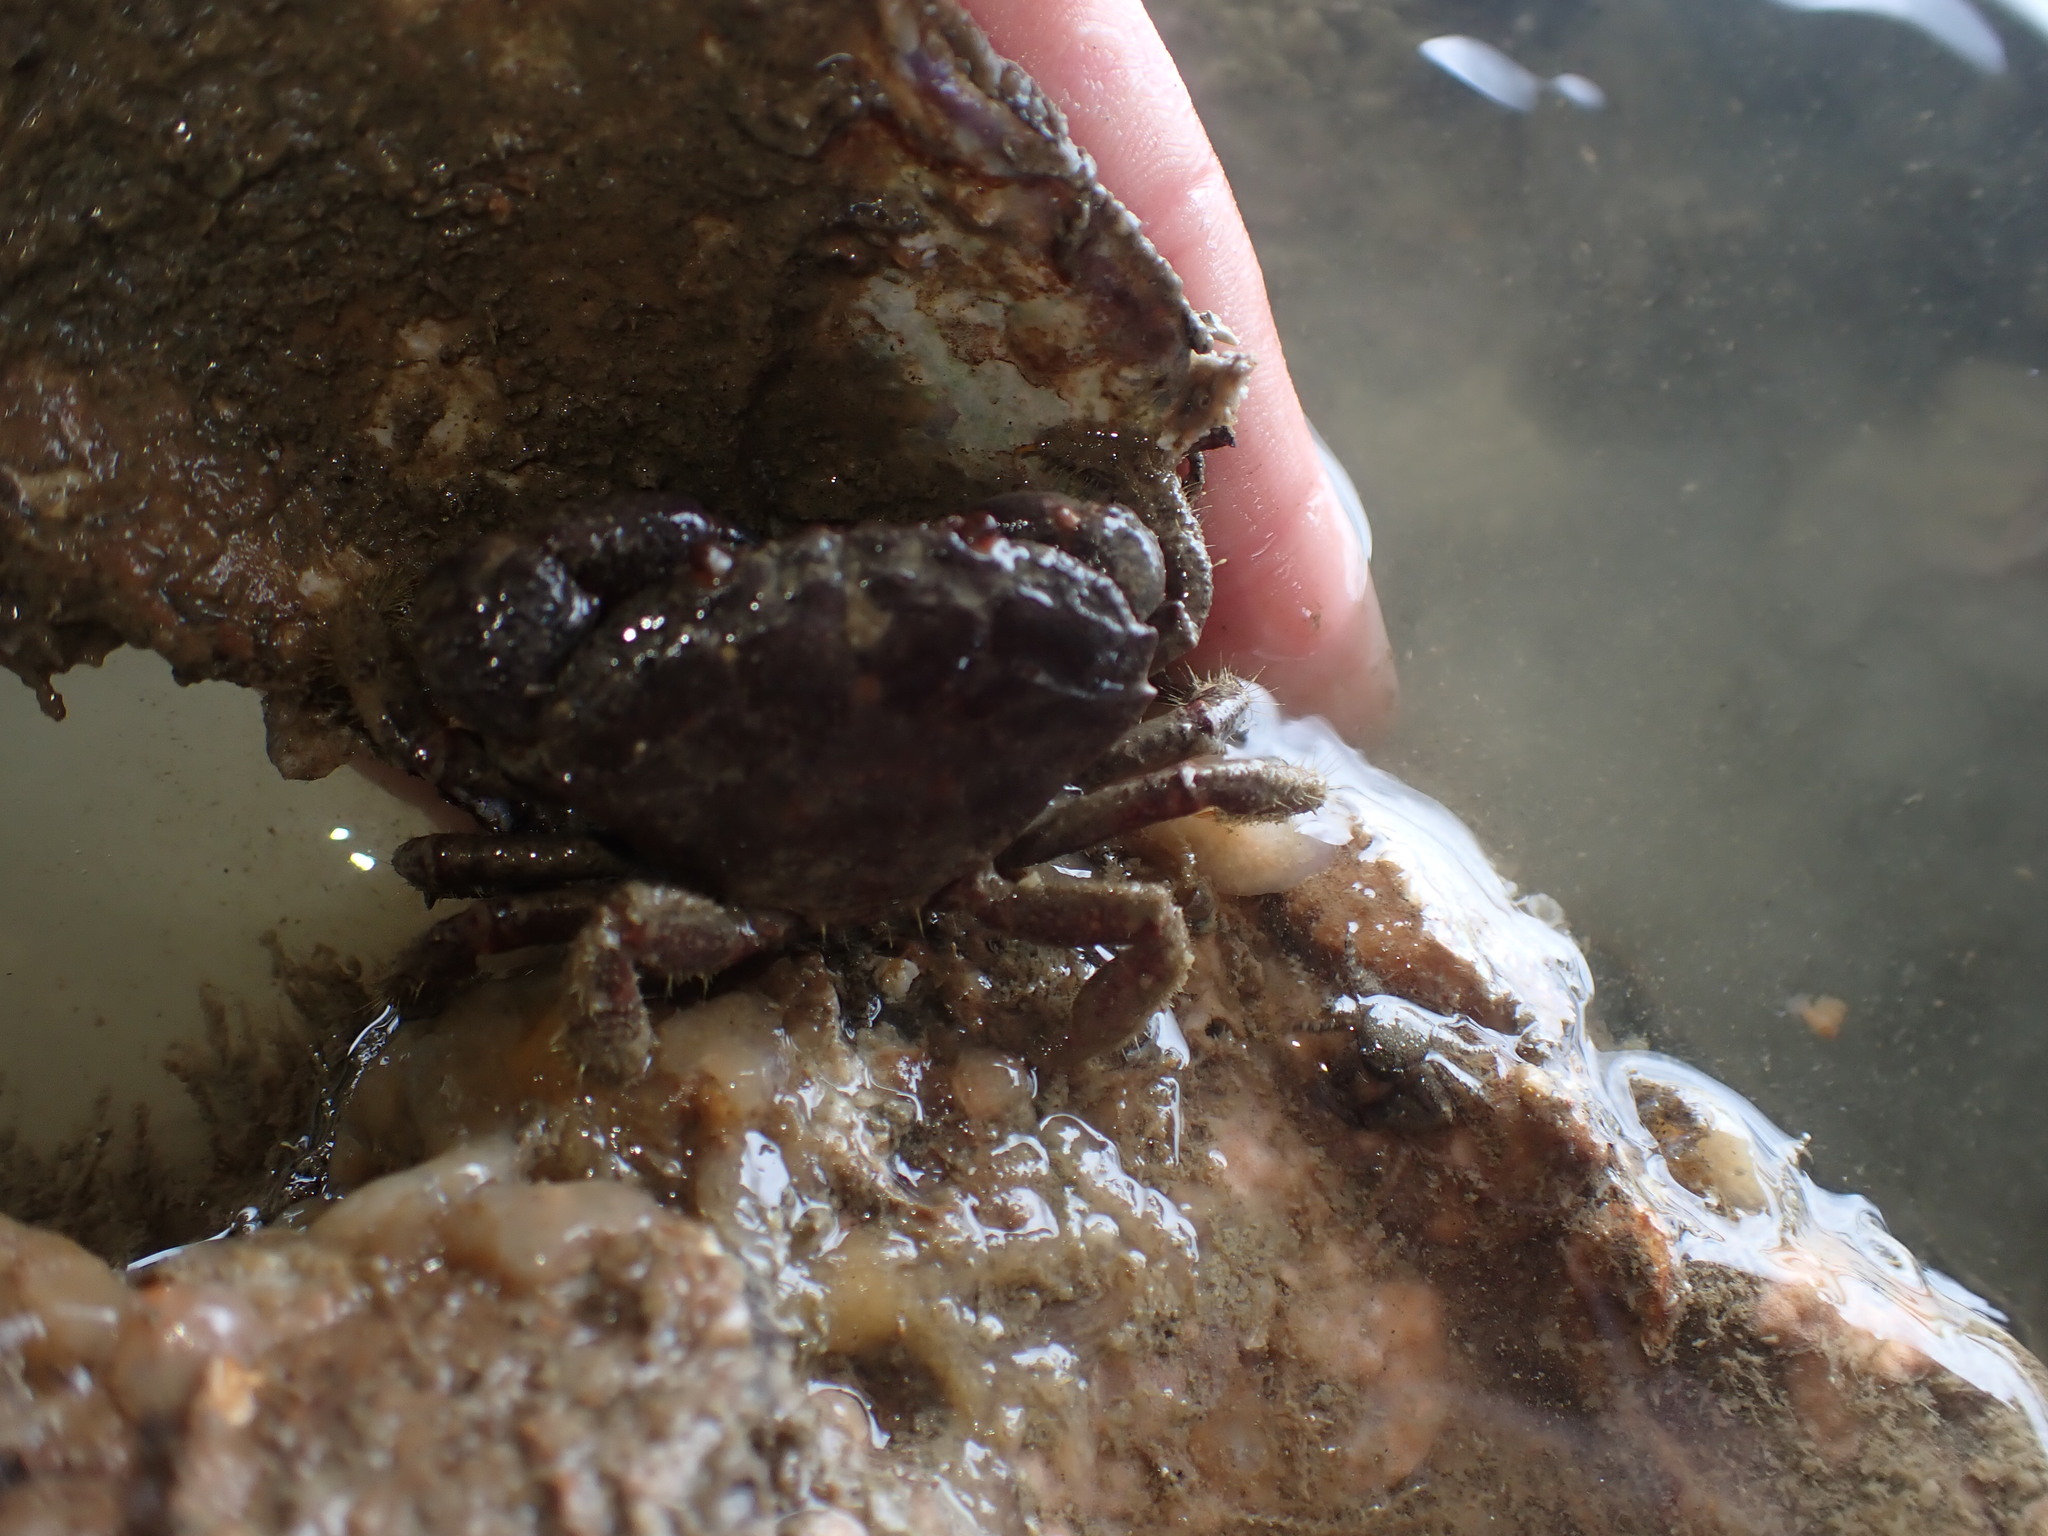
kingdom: Animalia
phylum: Arthropoda
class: Malacostraca
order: Decapoda
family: Oziidae
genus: Ozius
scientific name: Ozius deplanatus
